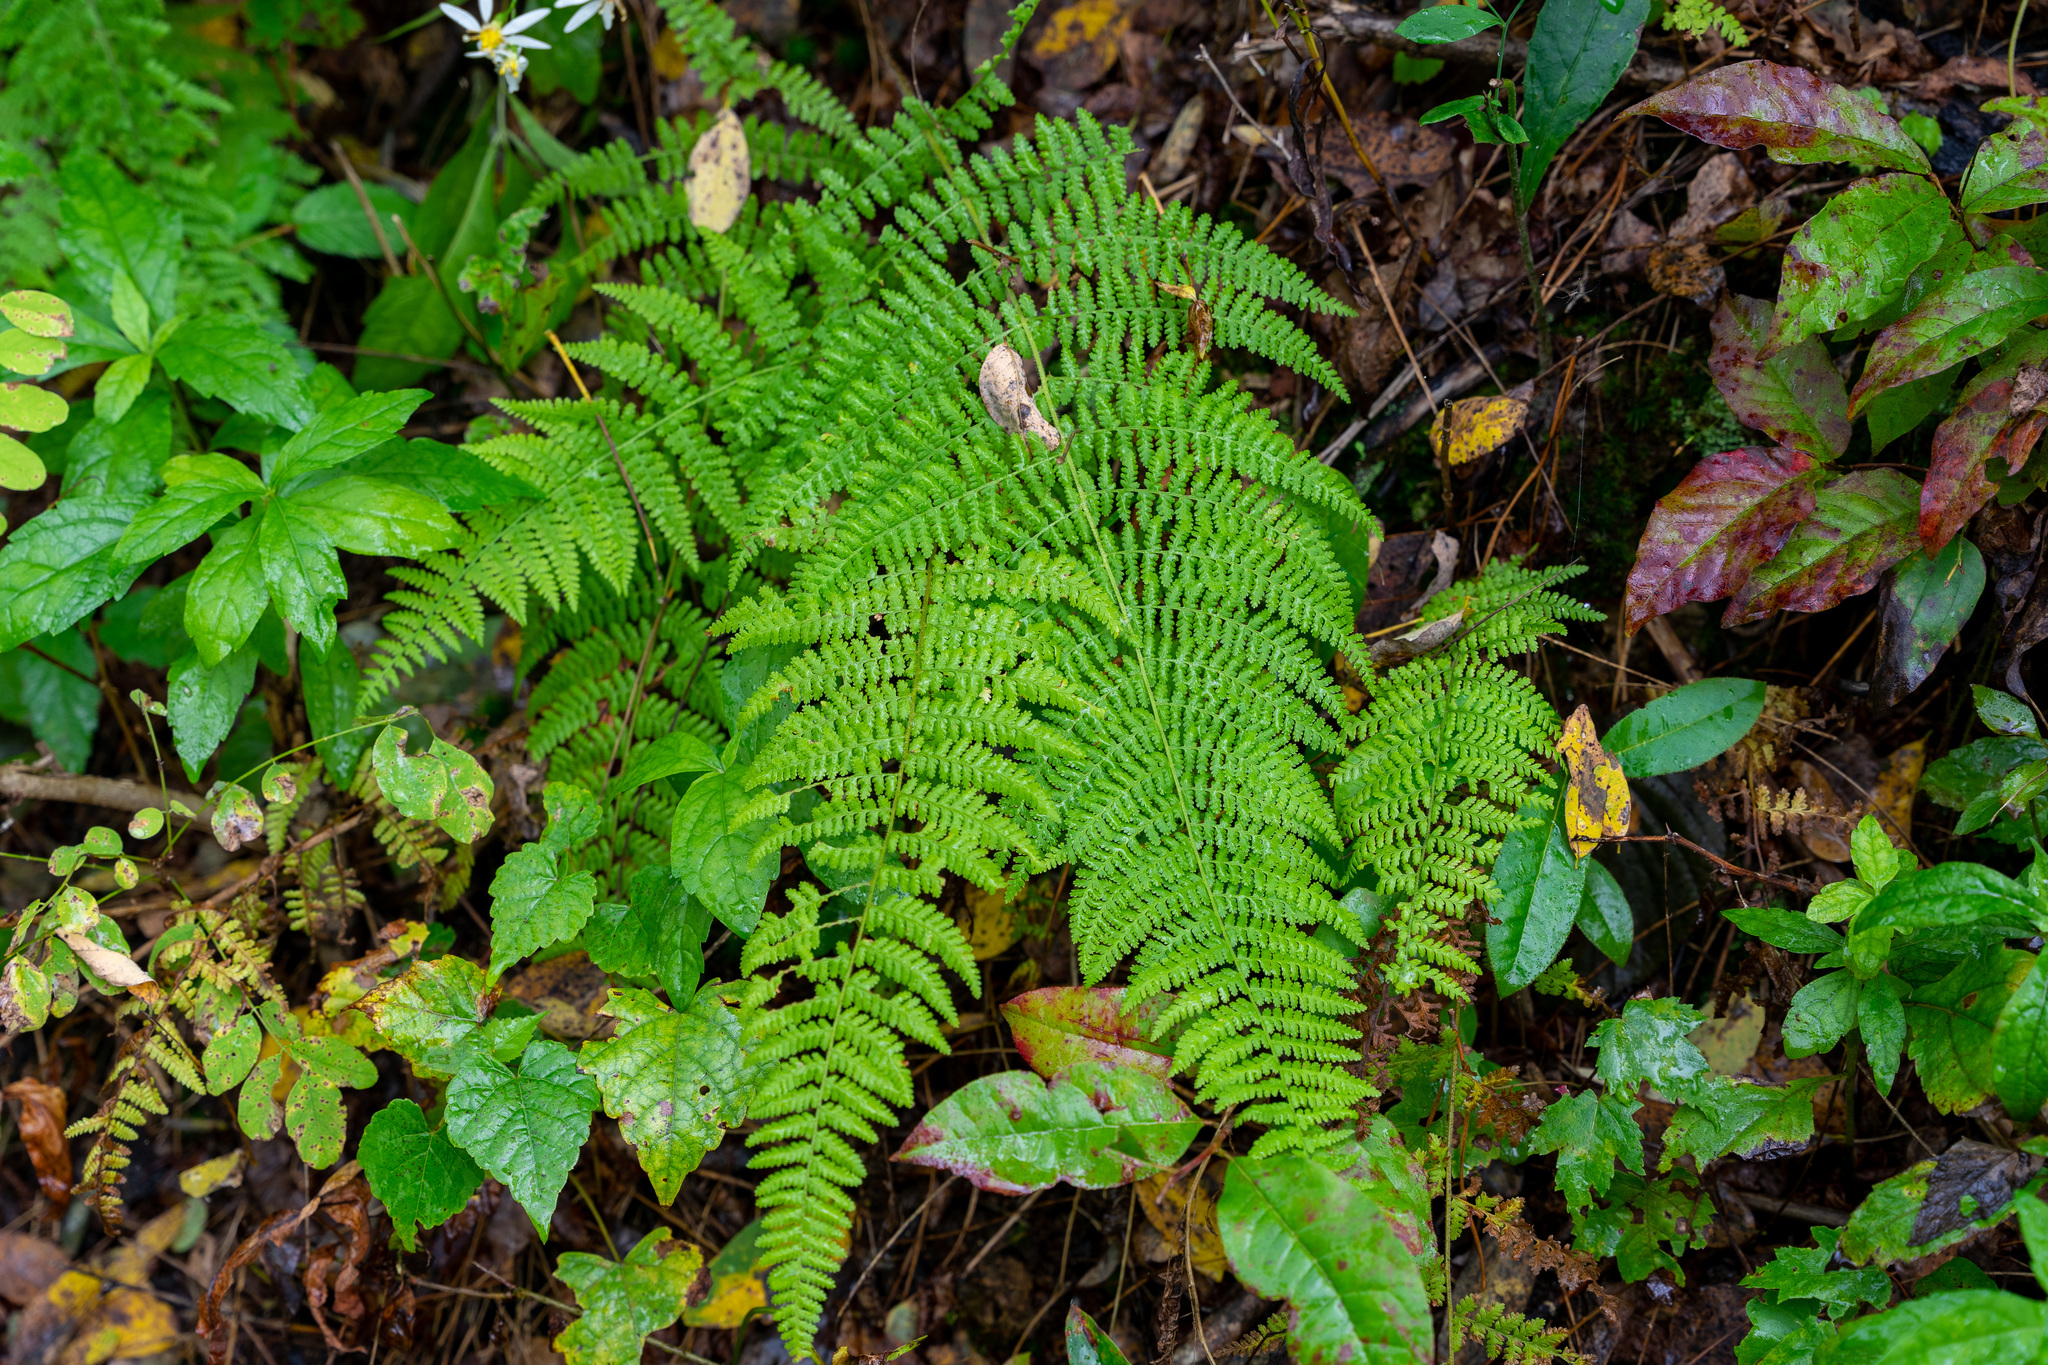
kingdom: Plantae
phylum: Tracheophyta
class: Polypodiopsida
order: Polypodiales
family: Dennstaedtiaceae
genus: Sitobolium
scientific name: Sitobolium punctilobum
